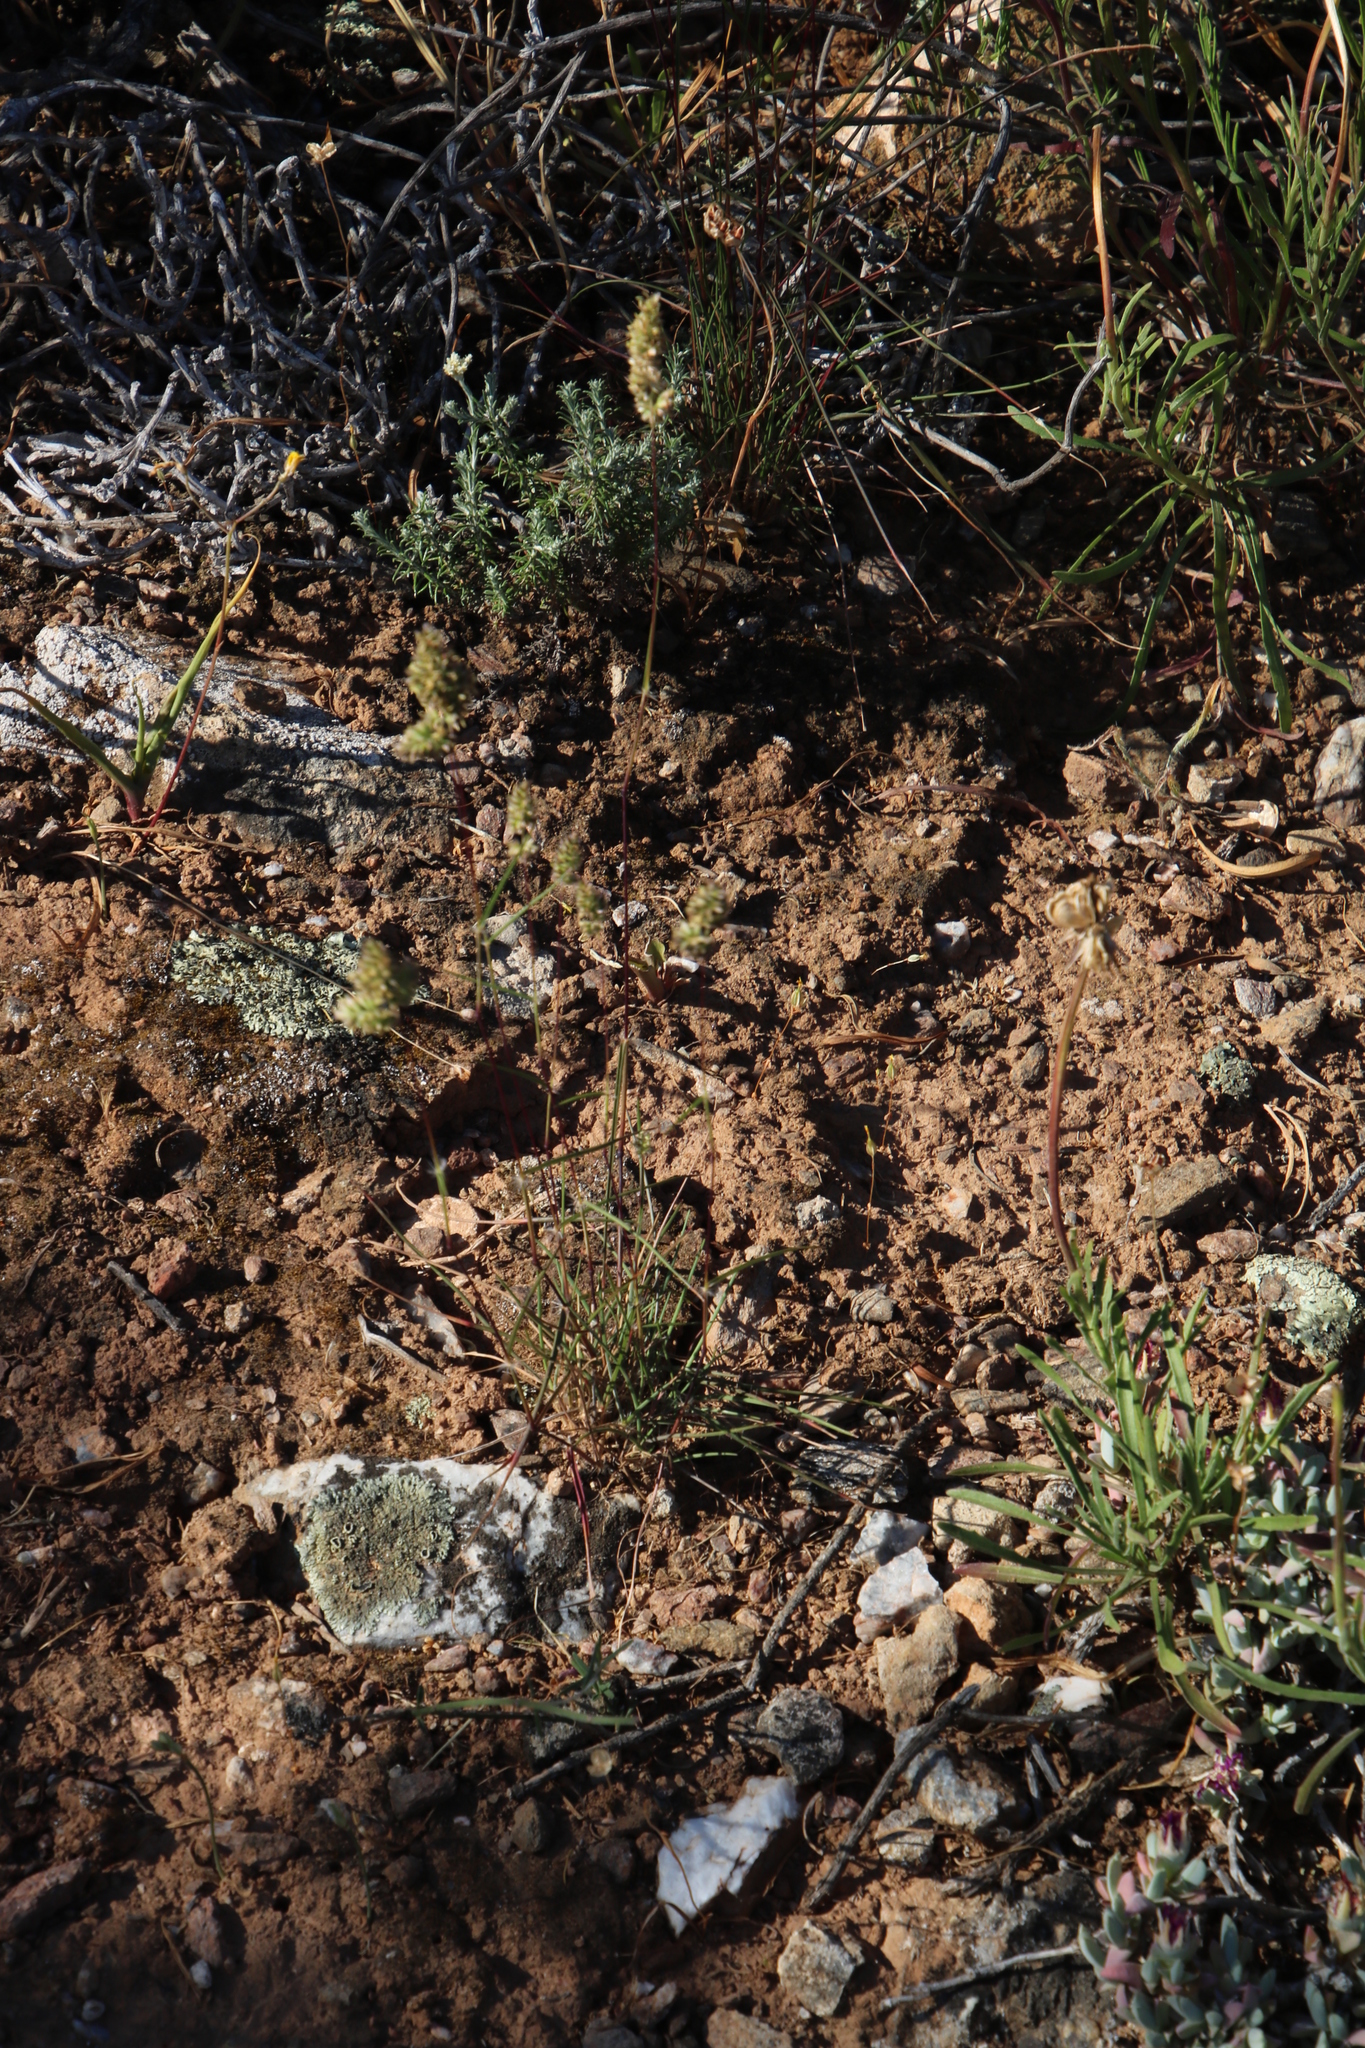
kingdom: Plantae
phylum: Tracheophyta
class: Liliopsida
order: Poales
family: Poaceae
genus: Tribolium
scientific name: Tribolium hispidum
